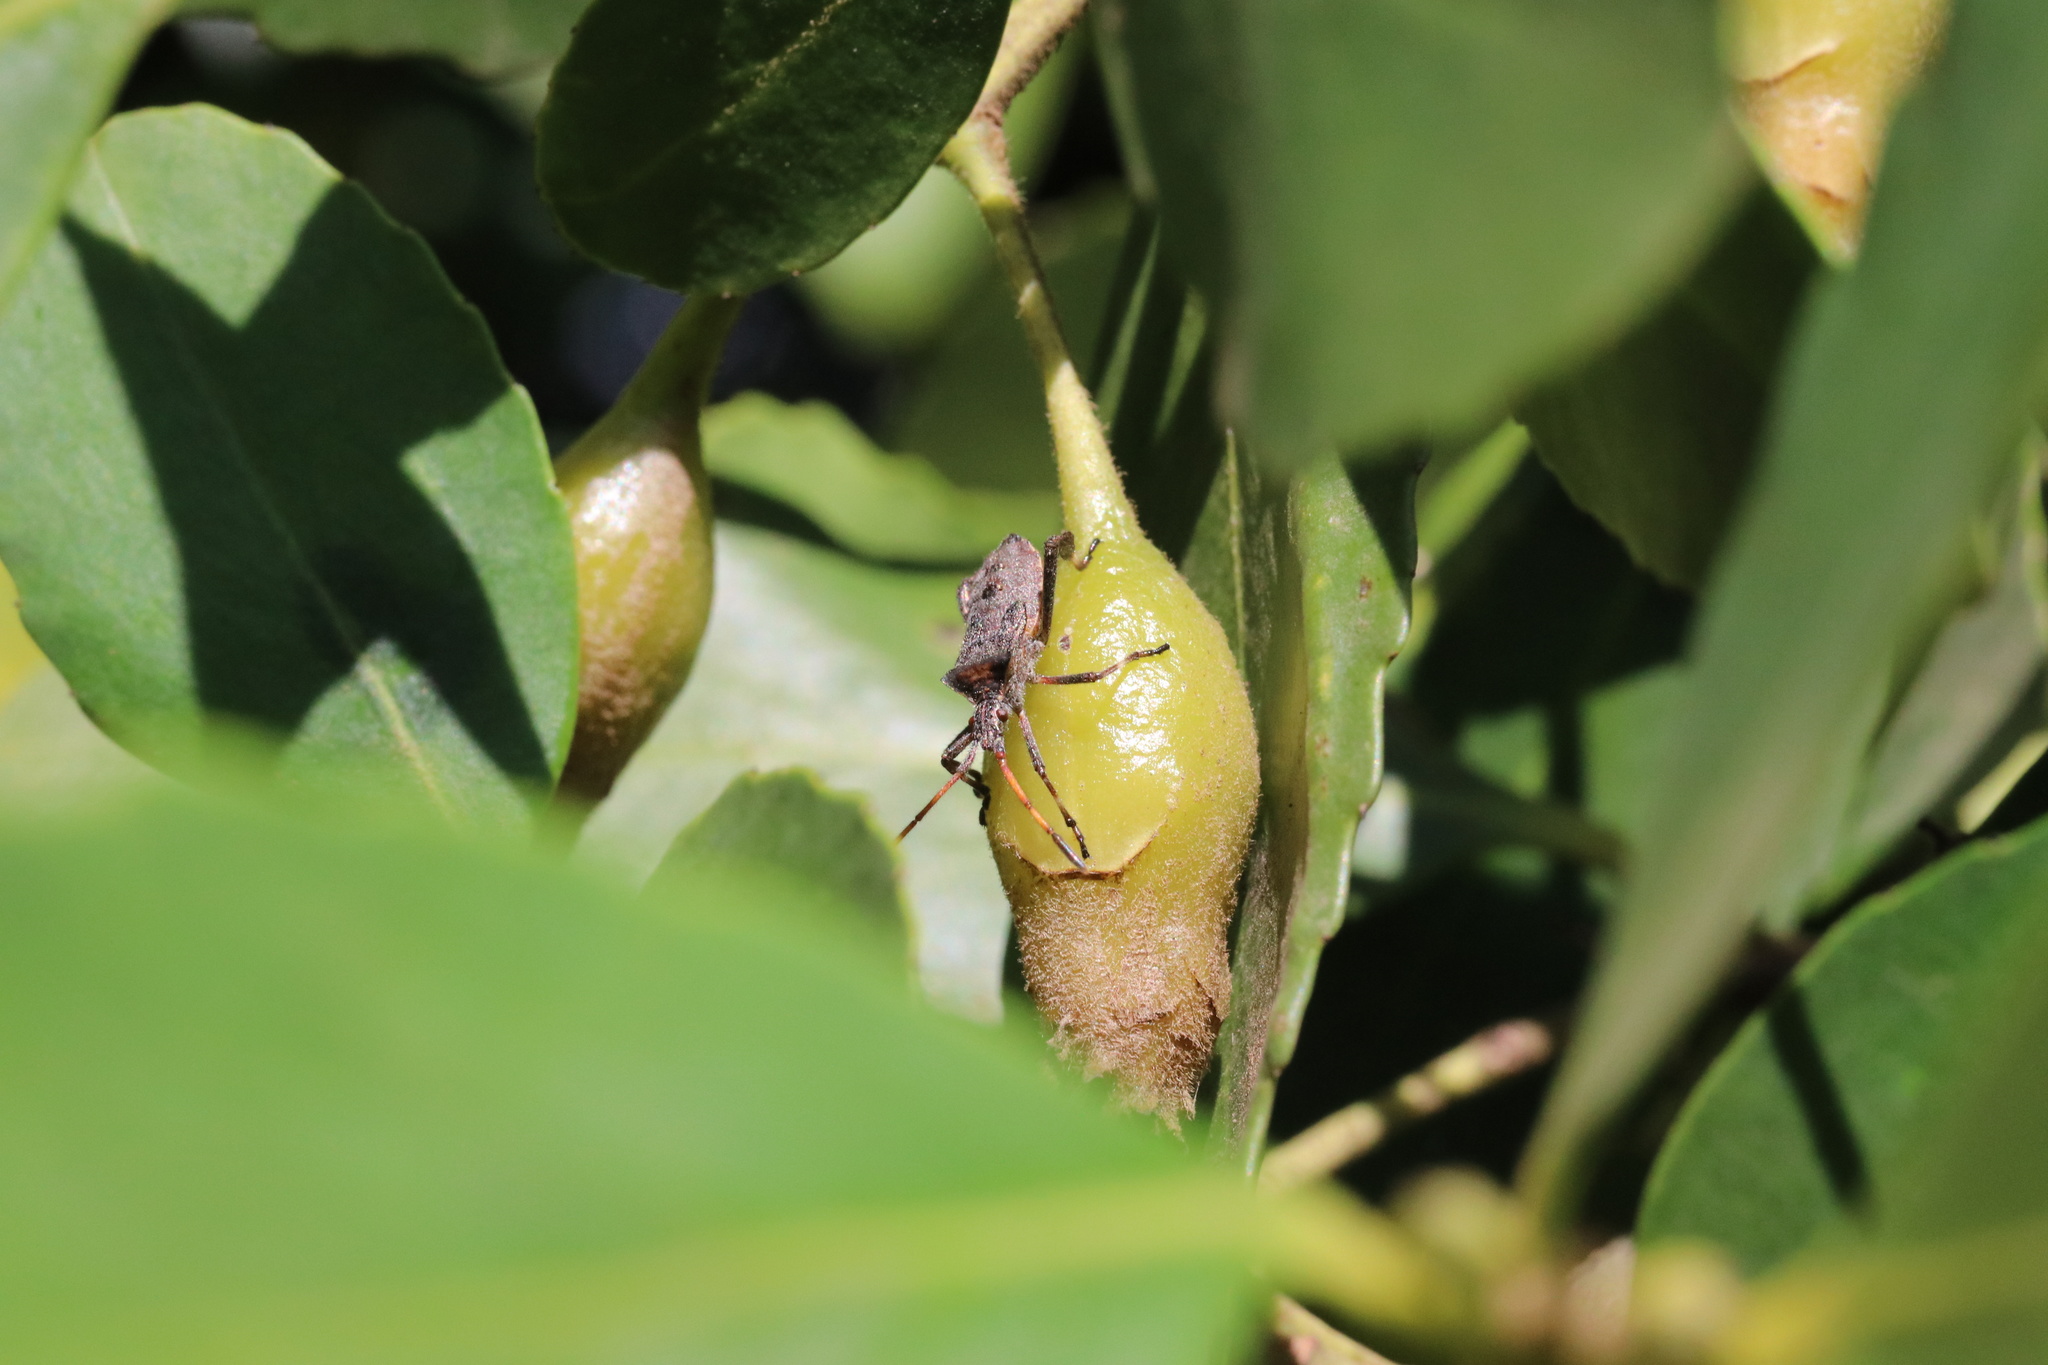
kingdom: Animalia
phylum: Arthropoda
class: Insecta
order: Hemiptera
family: Coreidae
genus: Leptoglossus
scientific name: Leptoglossus chilensis
